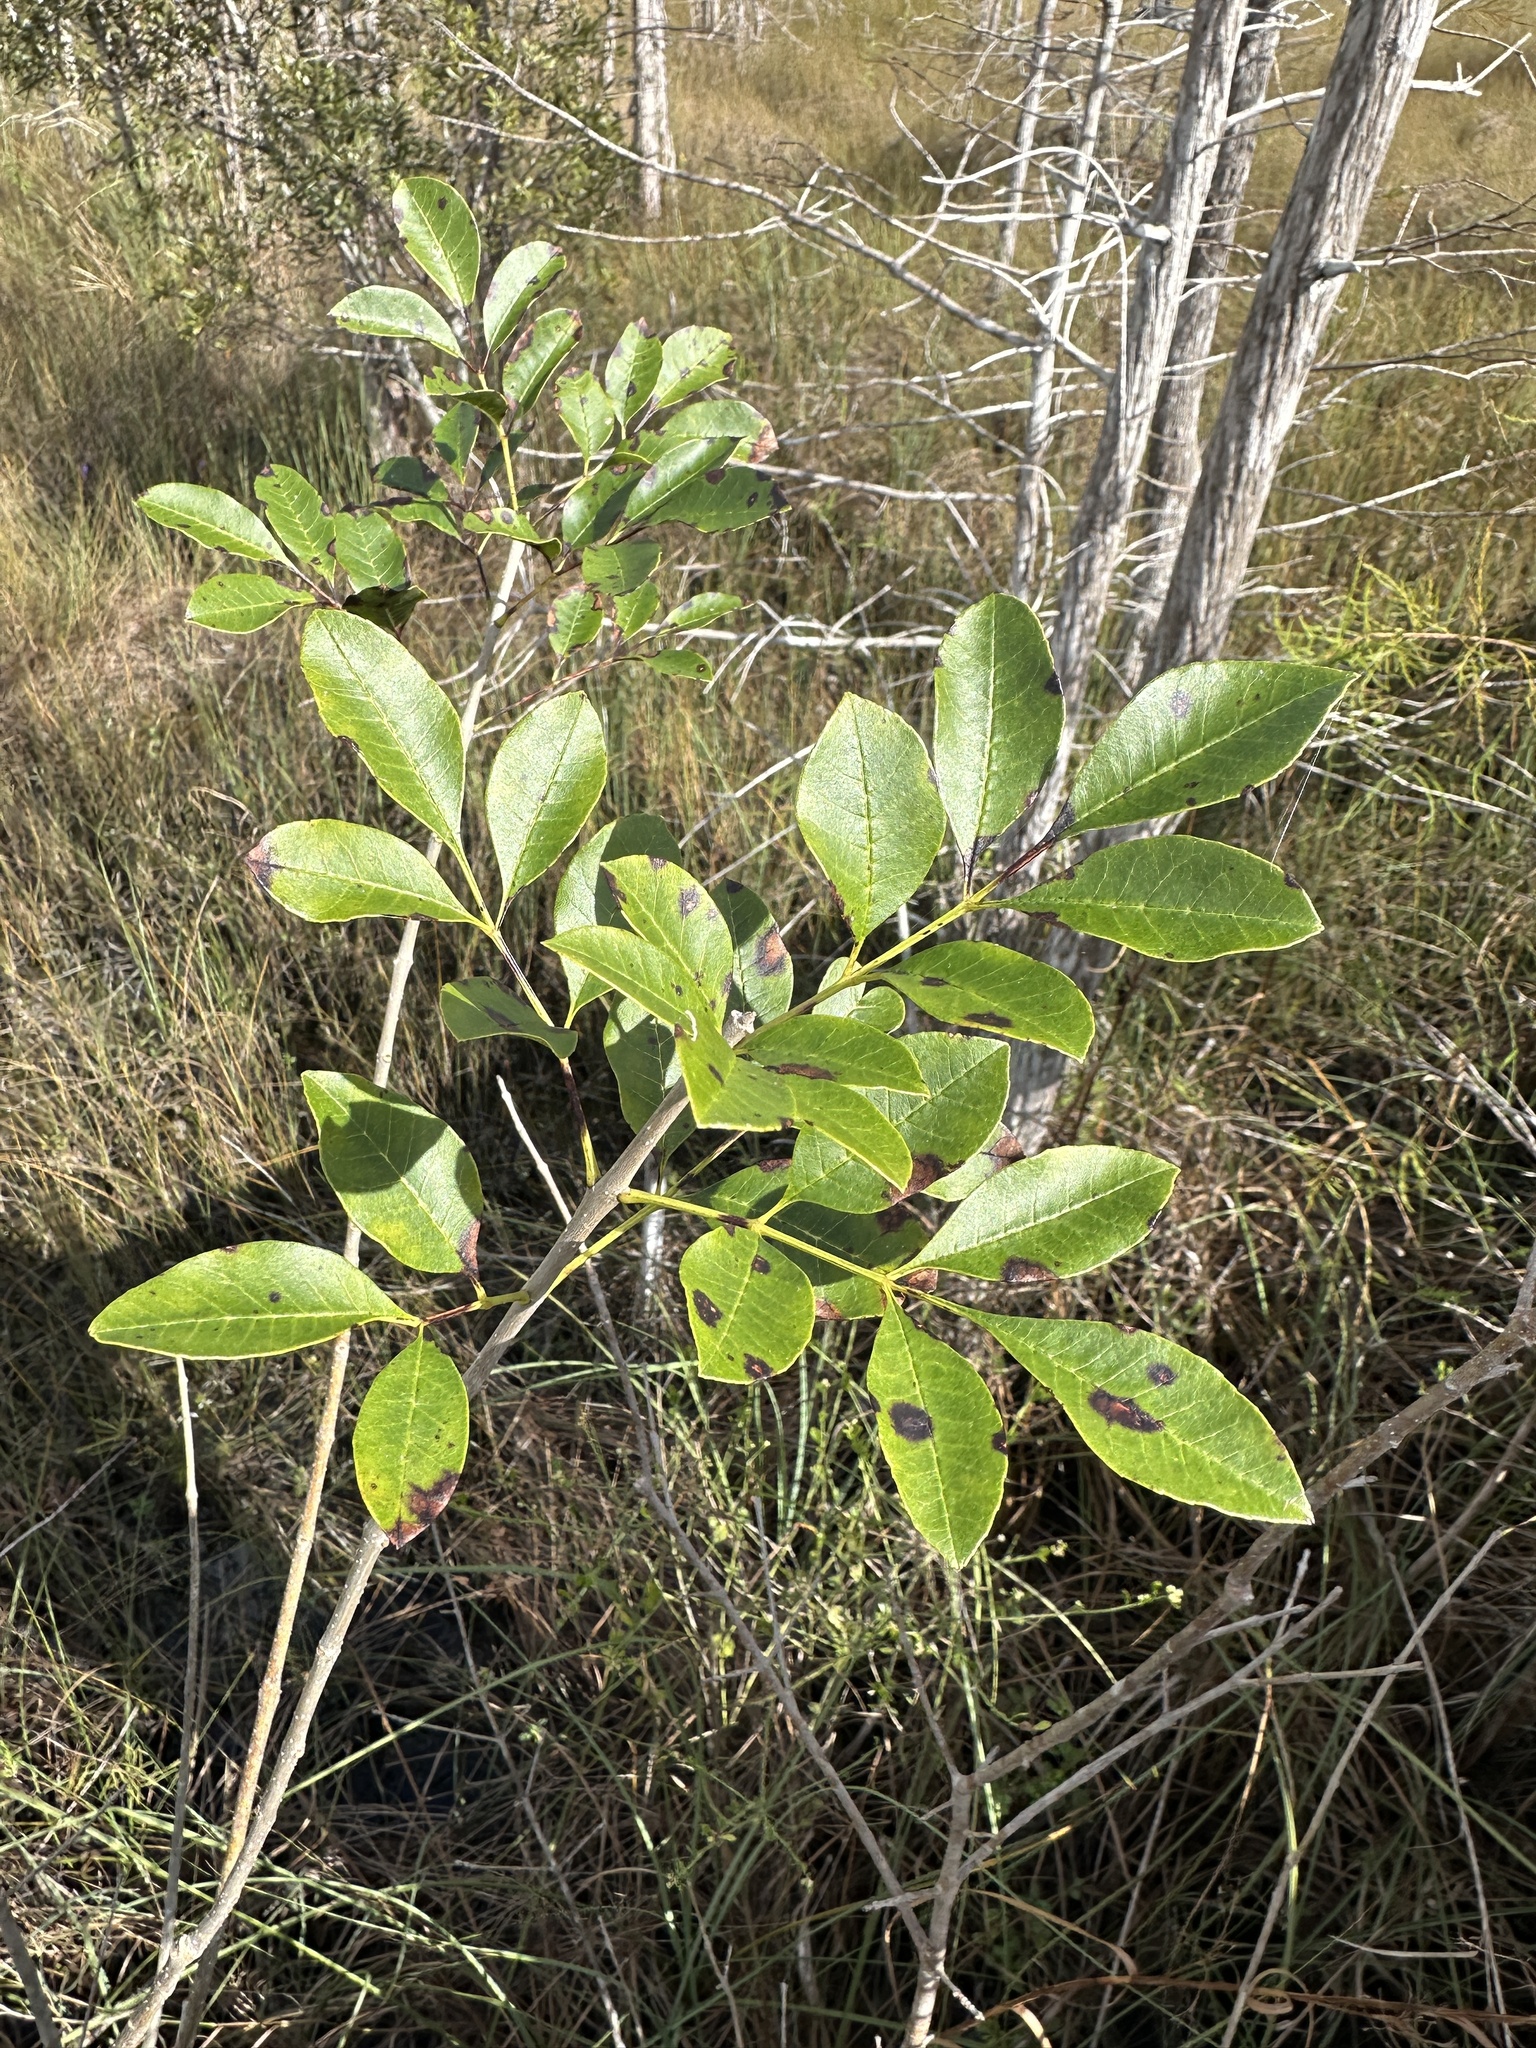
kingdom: Plantae
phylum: Tracheophyta
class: Magnoliopsida
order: Lamiales
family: Oleaceae
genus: Fraxinus
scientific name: Fraxinus caroliniana
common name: Carolina ash
